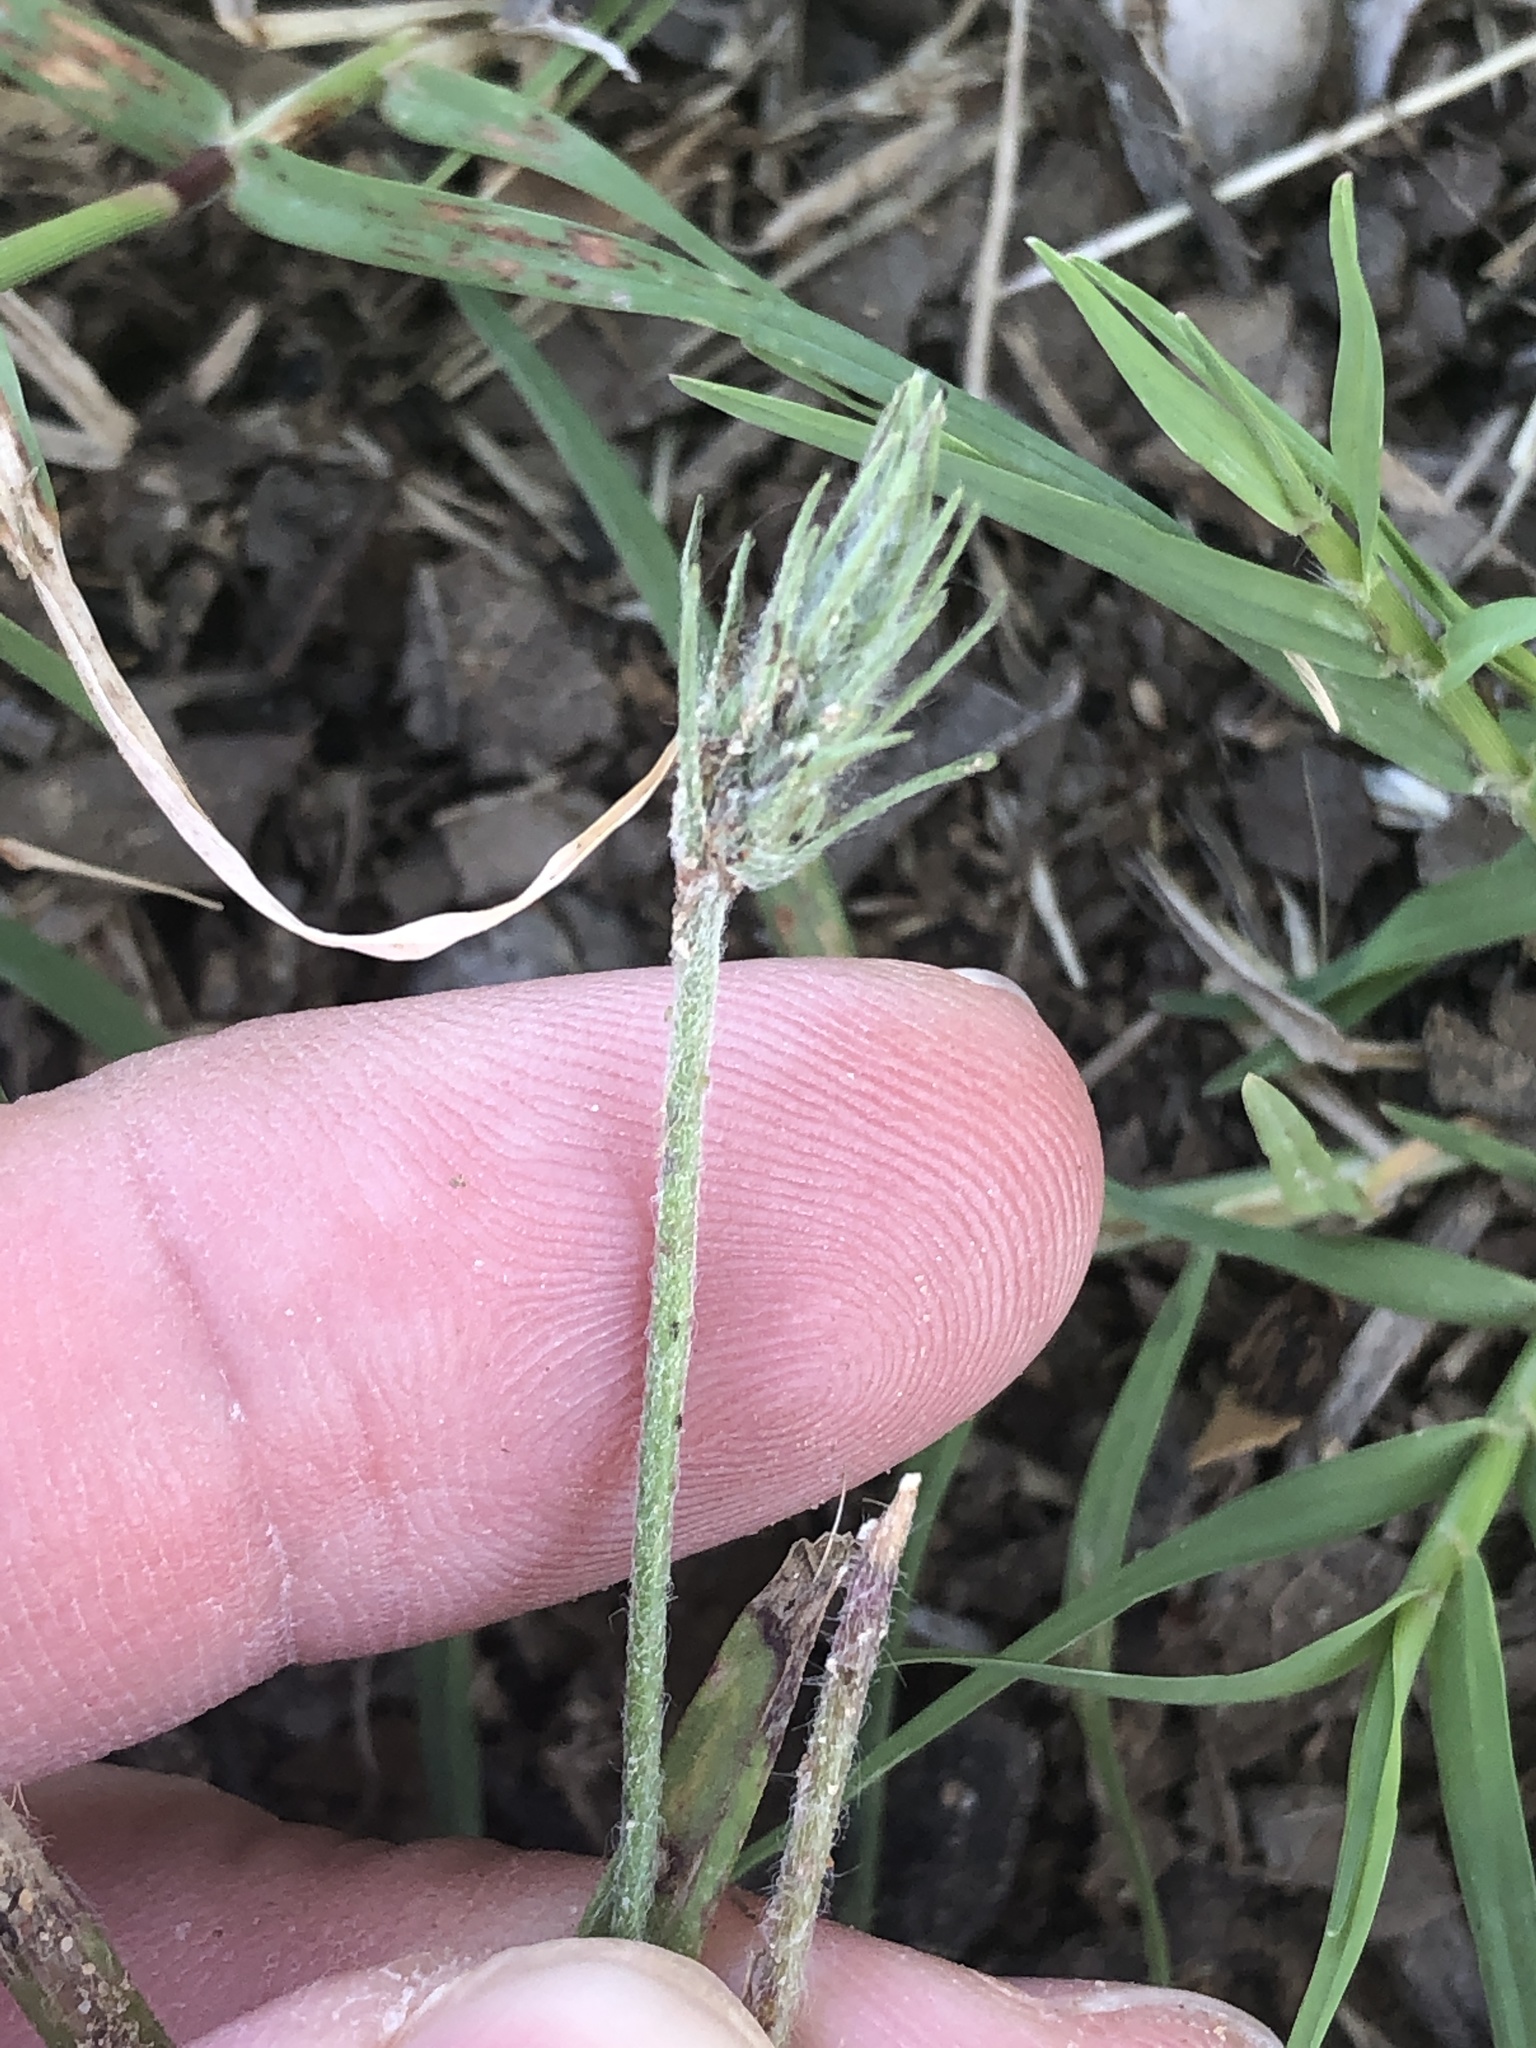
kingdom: Plantae
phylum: Tracheophyta
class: Magnoliopsida
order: Lamiales
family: Plantaginaceae
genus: Plantago
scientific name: Plantago aristata
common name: Bracted plantain
